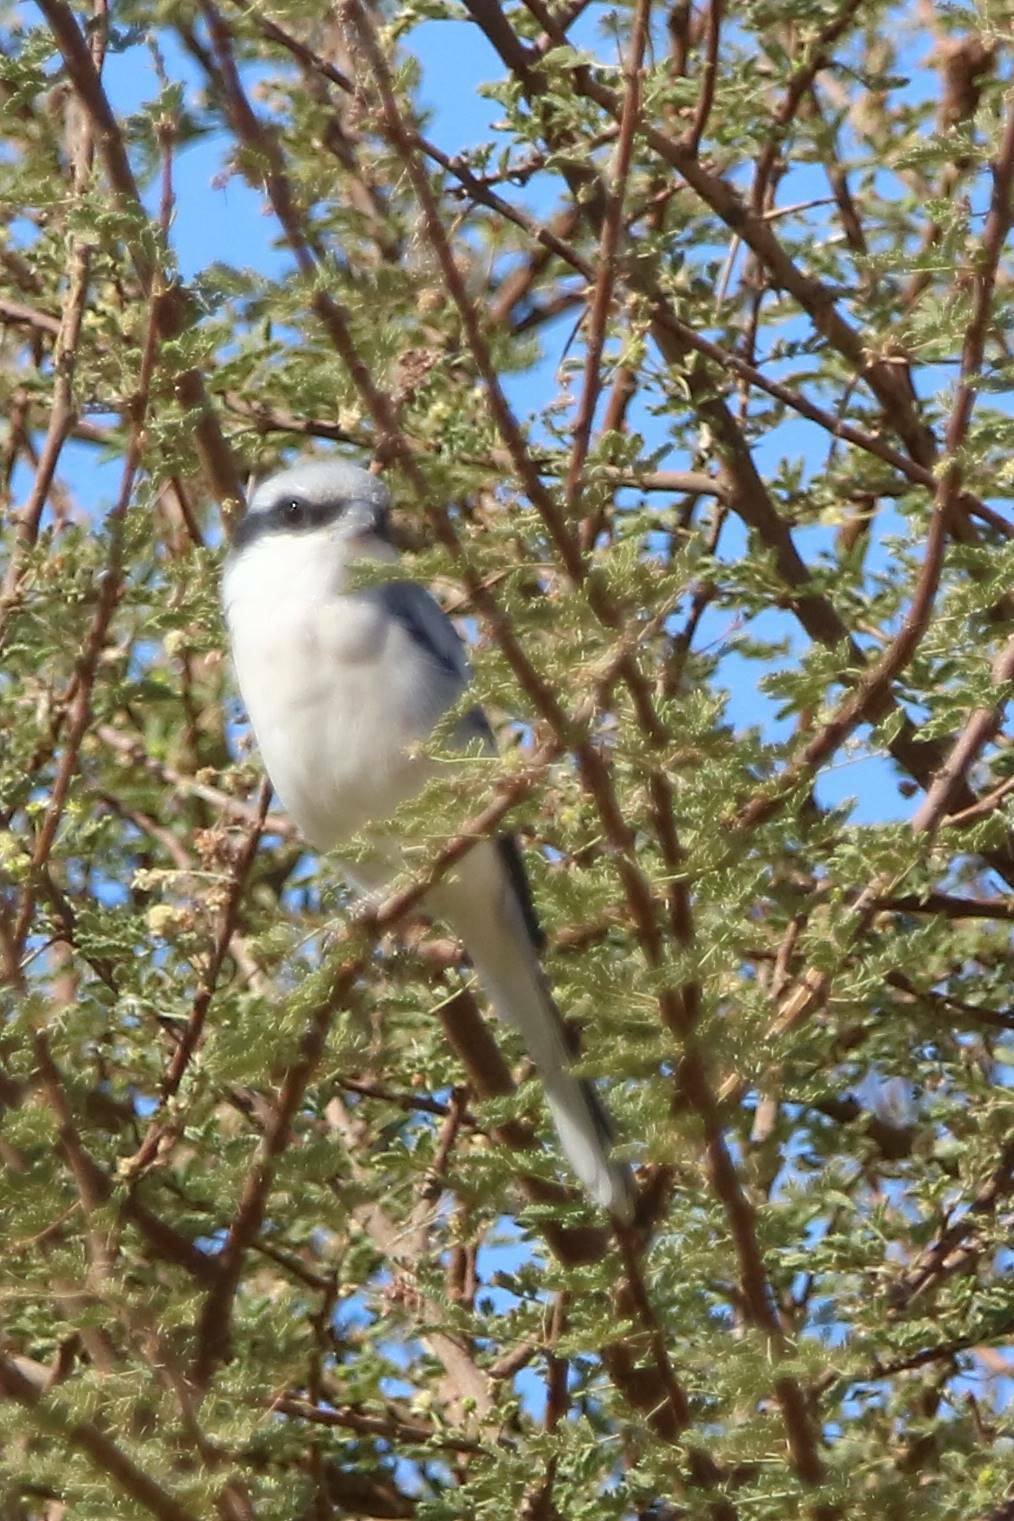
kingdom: Animalia
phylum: Chordata
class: Aves
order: Passeriformes
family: Laniidae
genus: Lanius
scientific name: Lanius excubitor
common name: Great grey shrike
